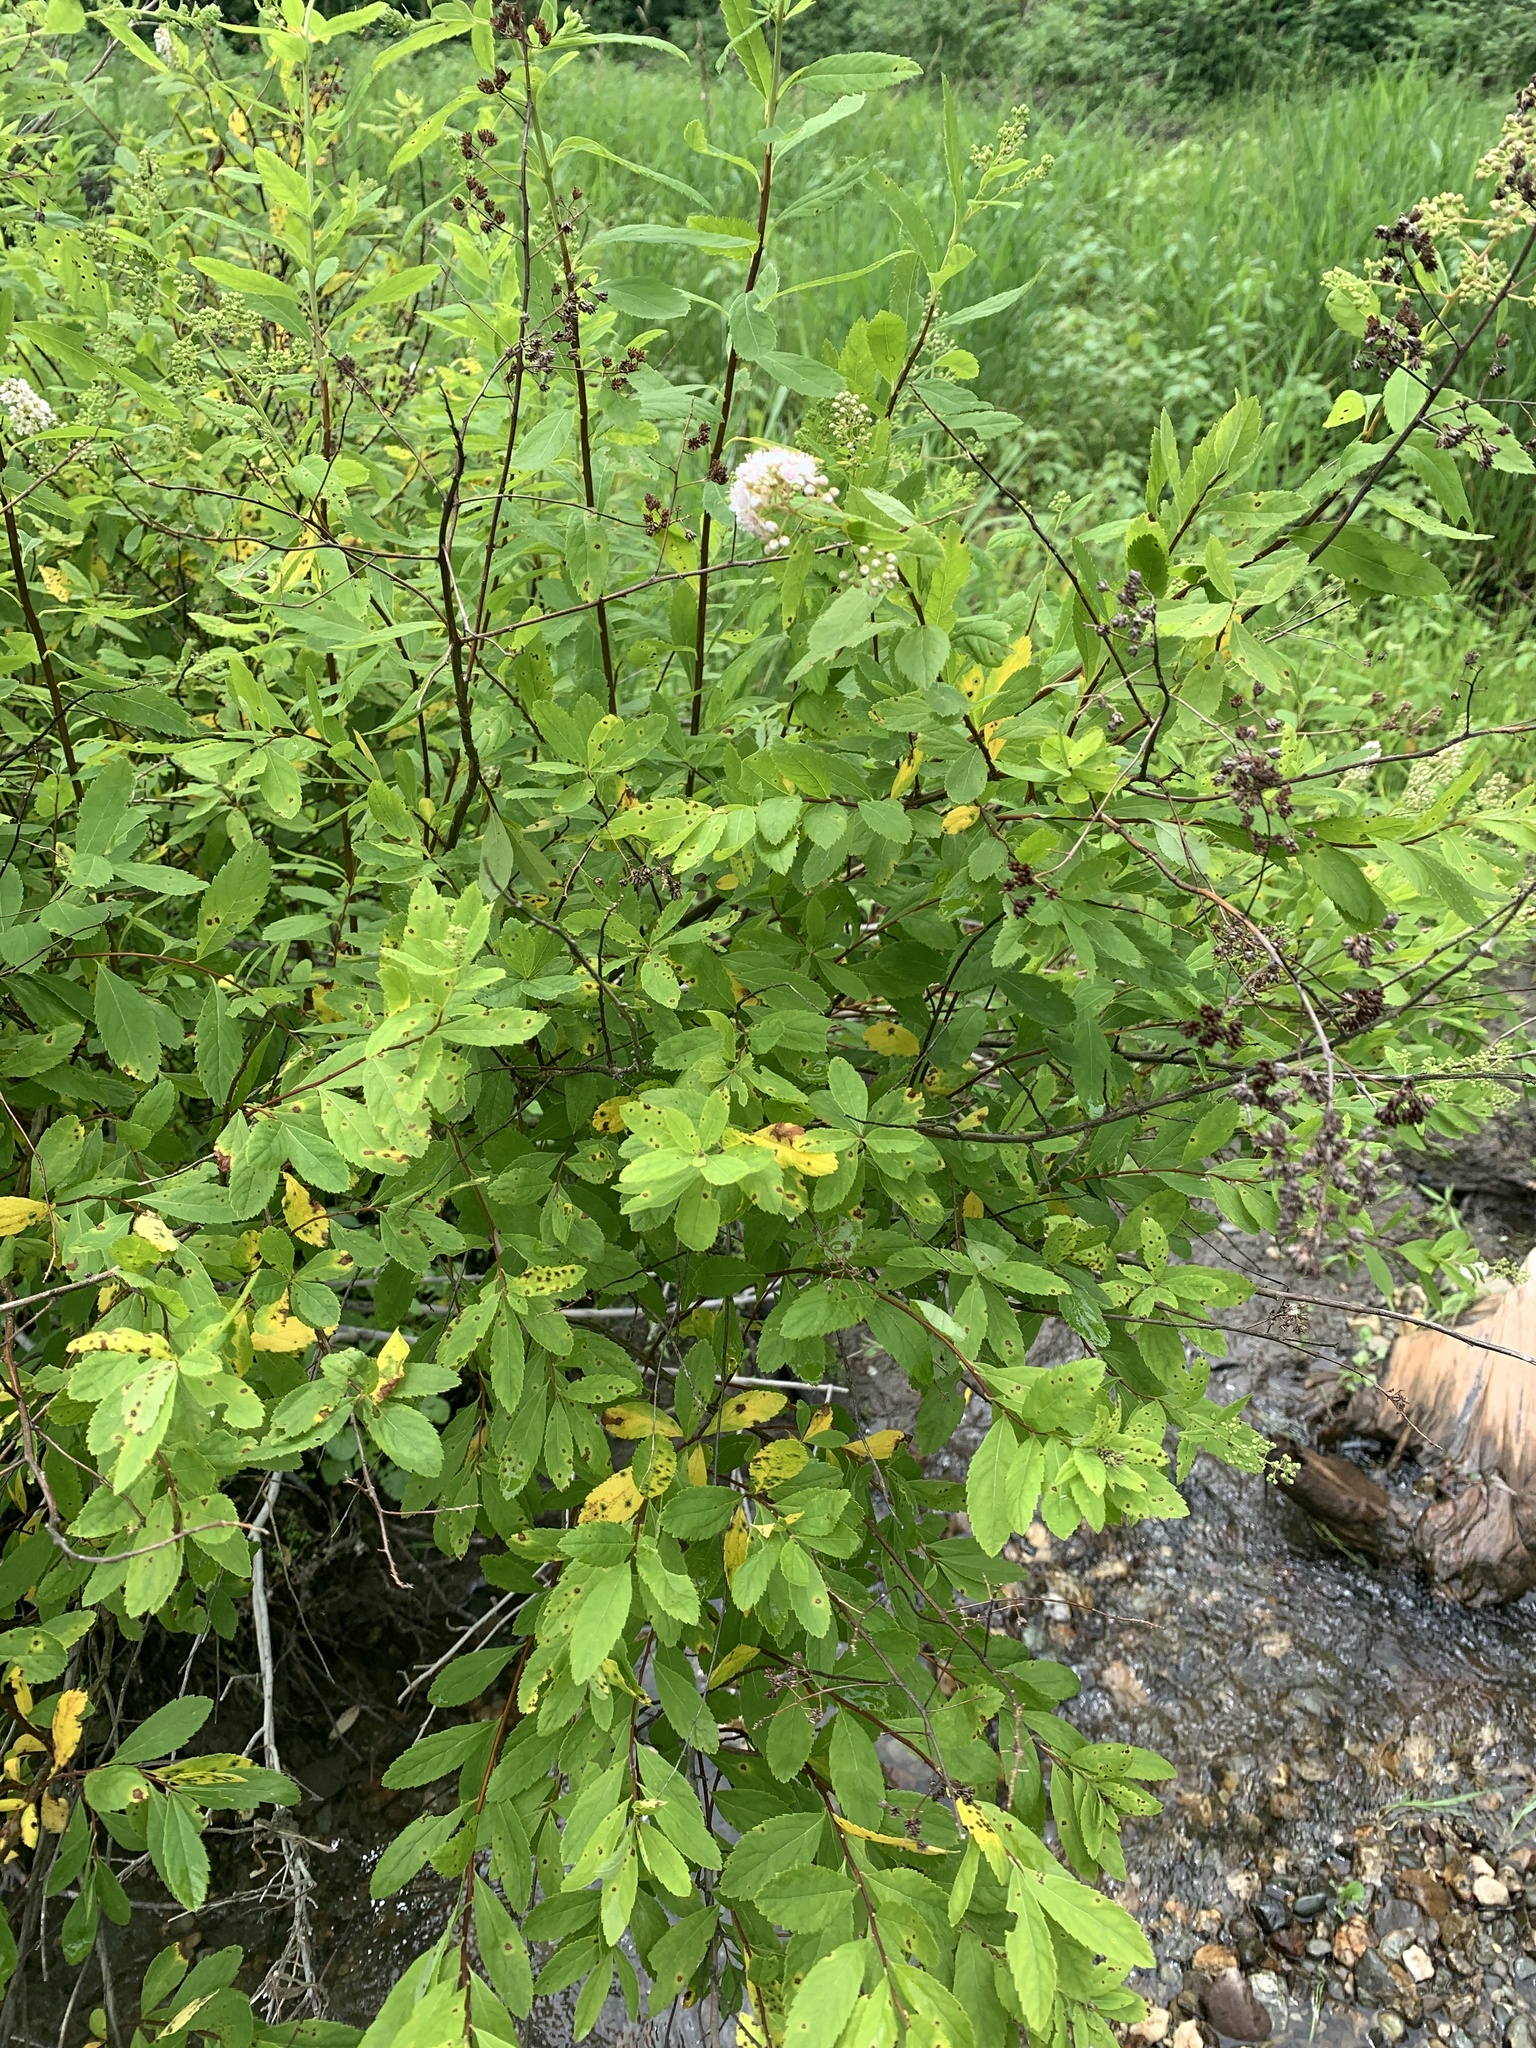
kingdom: Plantae
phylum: Tracheophyta
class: Magnoliopsida
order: Rosales
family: Rosaceae
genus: Spiraea
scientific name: Spiraea alba
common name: Pale bridewort
